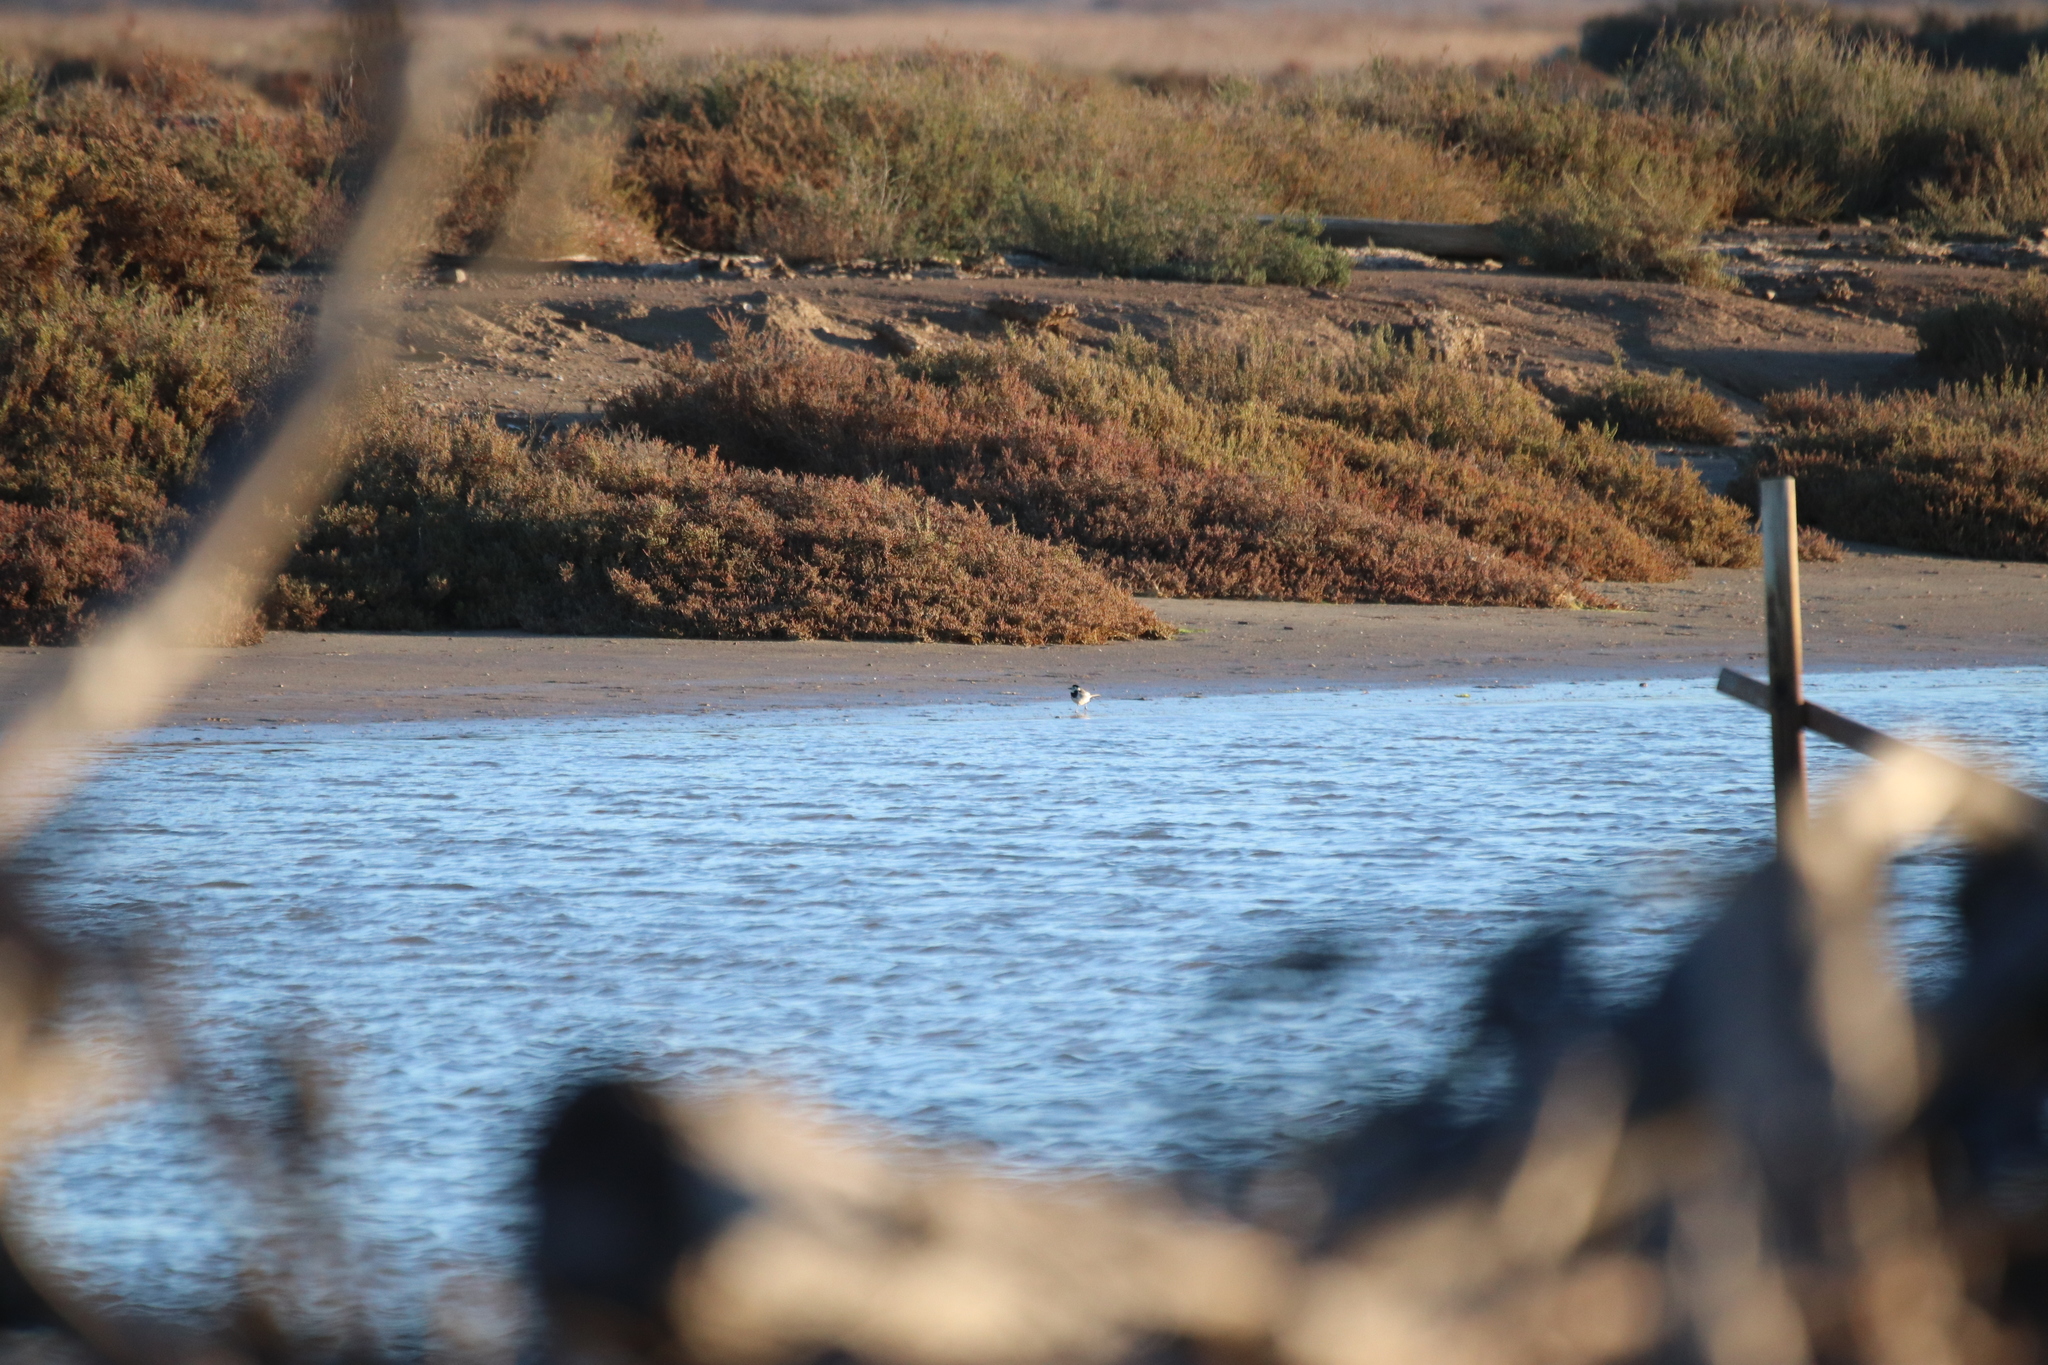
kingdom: Animalia
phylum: Chordata
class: Aves
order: Passeriformes
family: Motacillidae
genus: Motacilla
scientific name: Motacilla alba
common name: White wagtail
